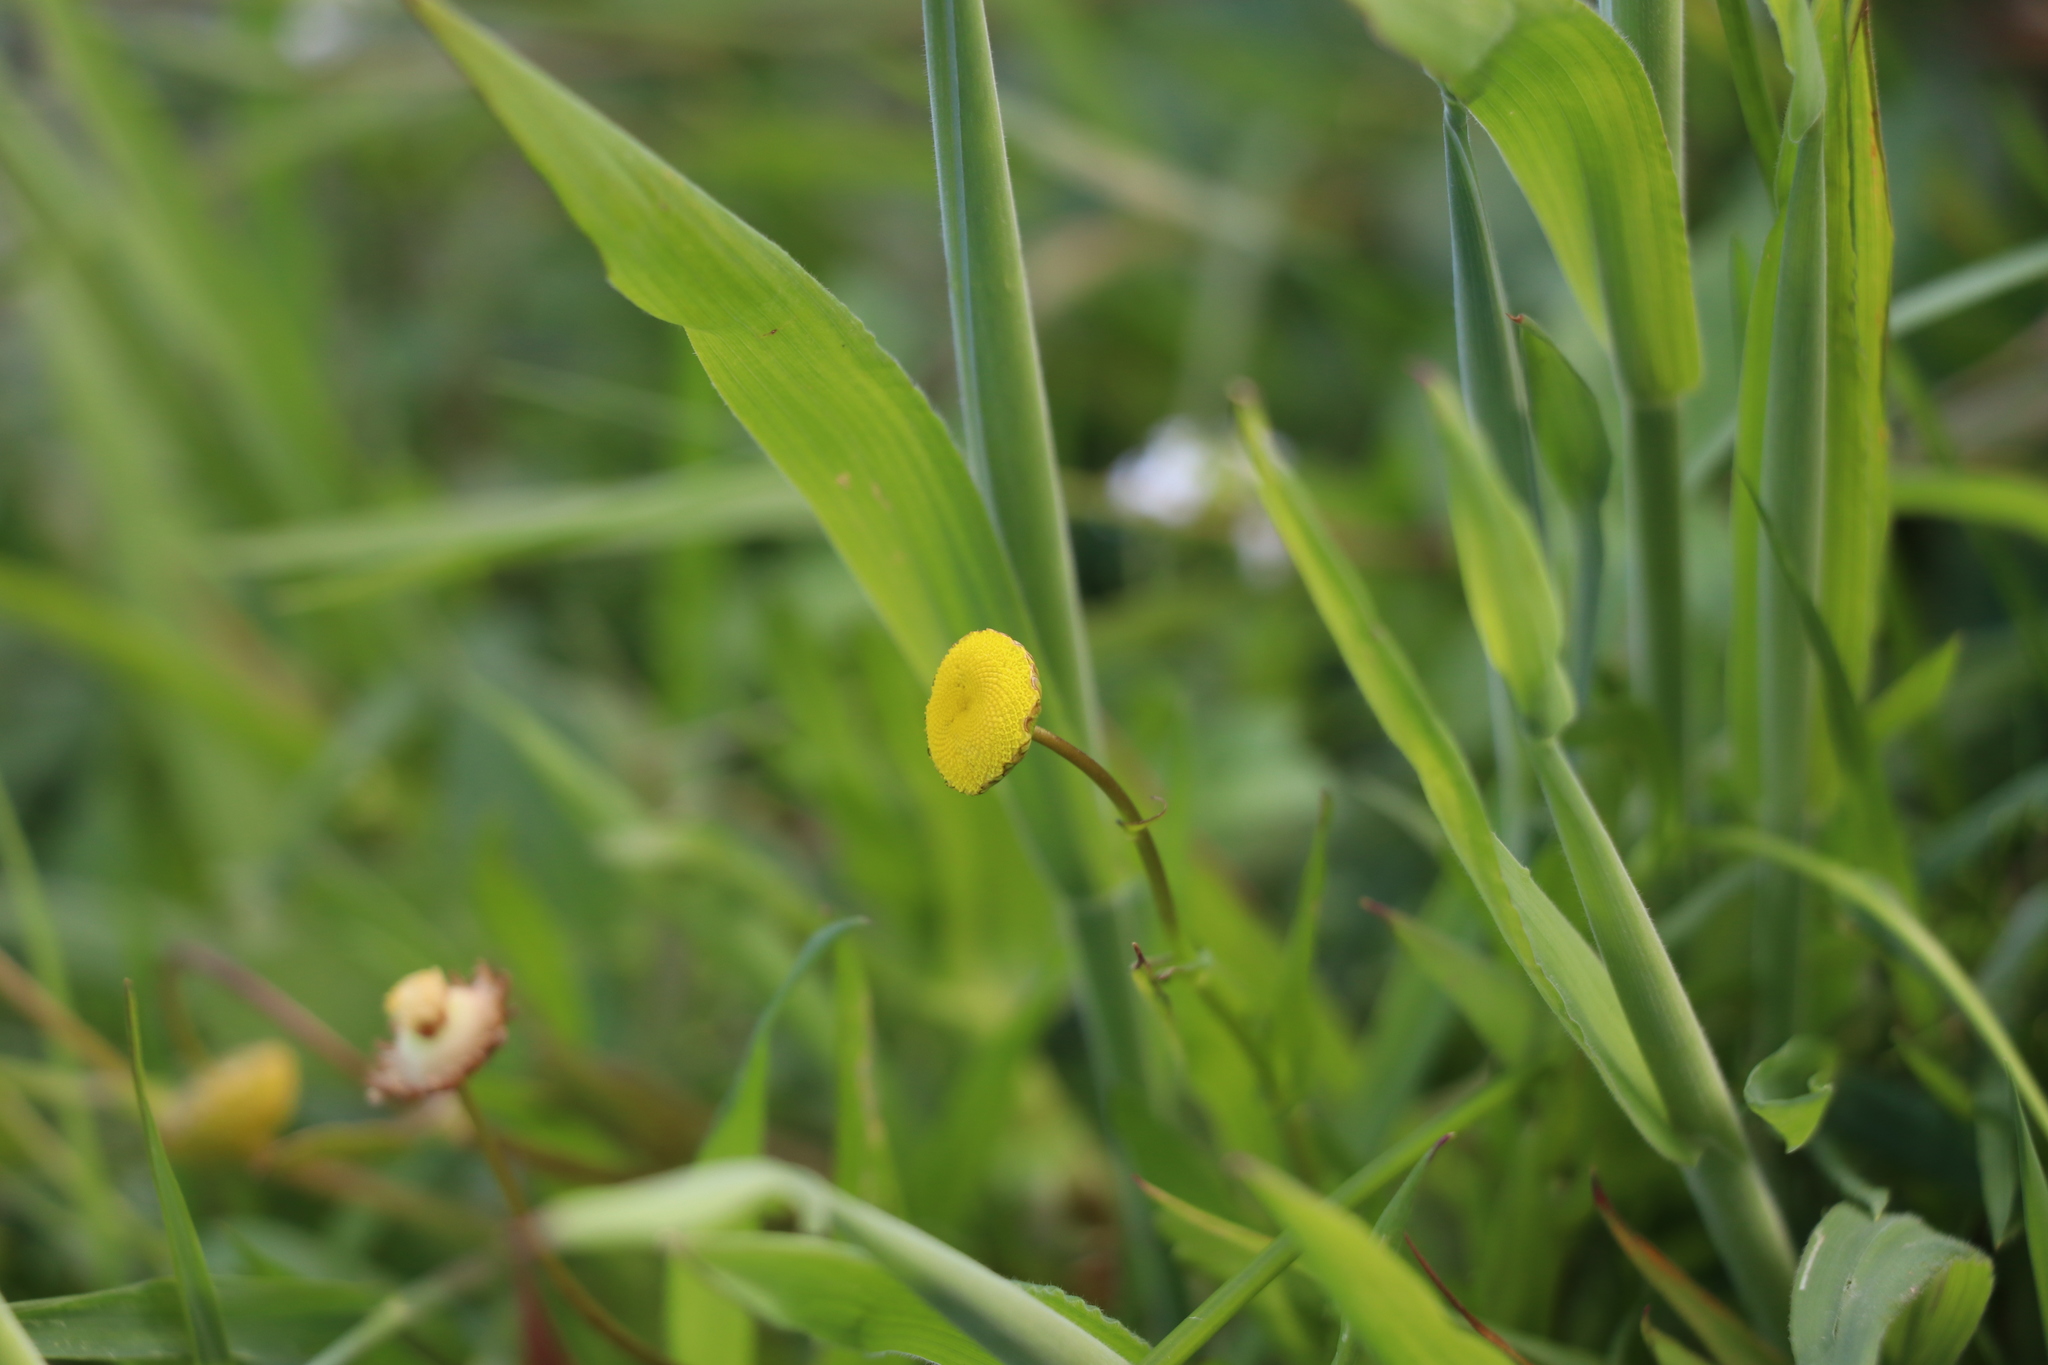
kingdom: Plantae
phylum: Tracheophyta
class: Magnoliopsida
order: Asterales
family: Asteraceae
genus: Cotula
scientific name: Cotula coronopifolia
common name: Buttonweed
